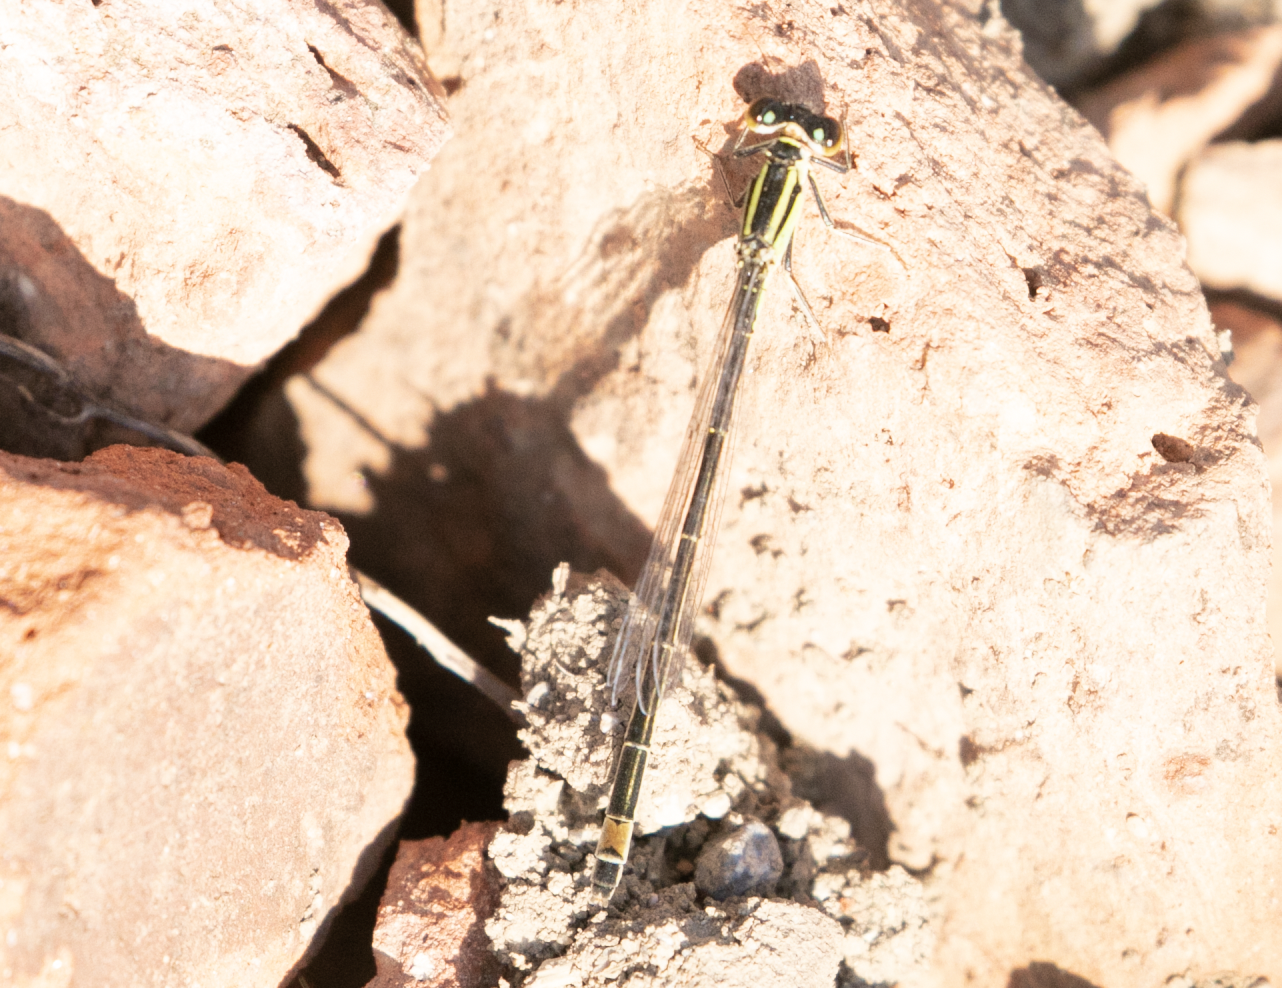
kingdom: Animalia
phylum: Arthropoda
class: Insecta
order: Odonata
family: Coenagrionidae
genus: Ischnura
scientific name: Ischnura elegans
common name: Blue-tailed damselfly
